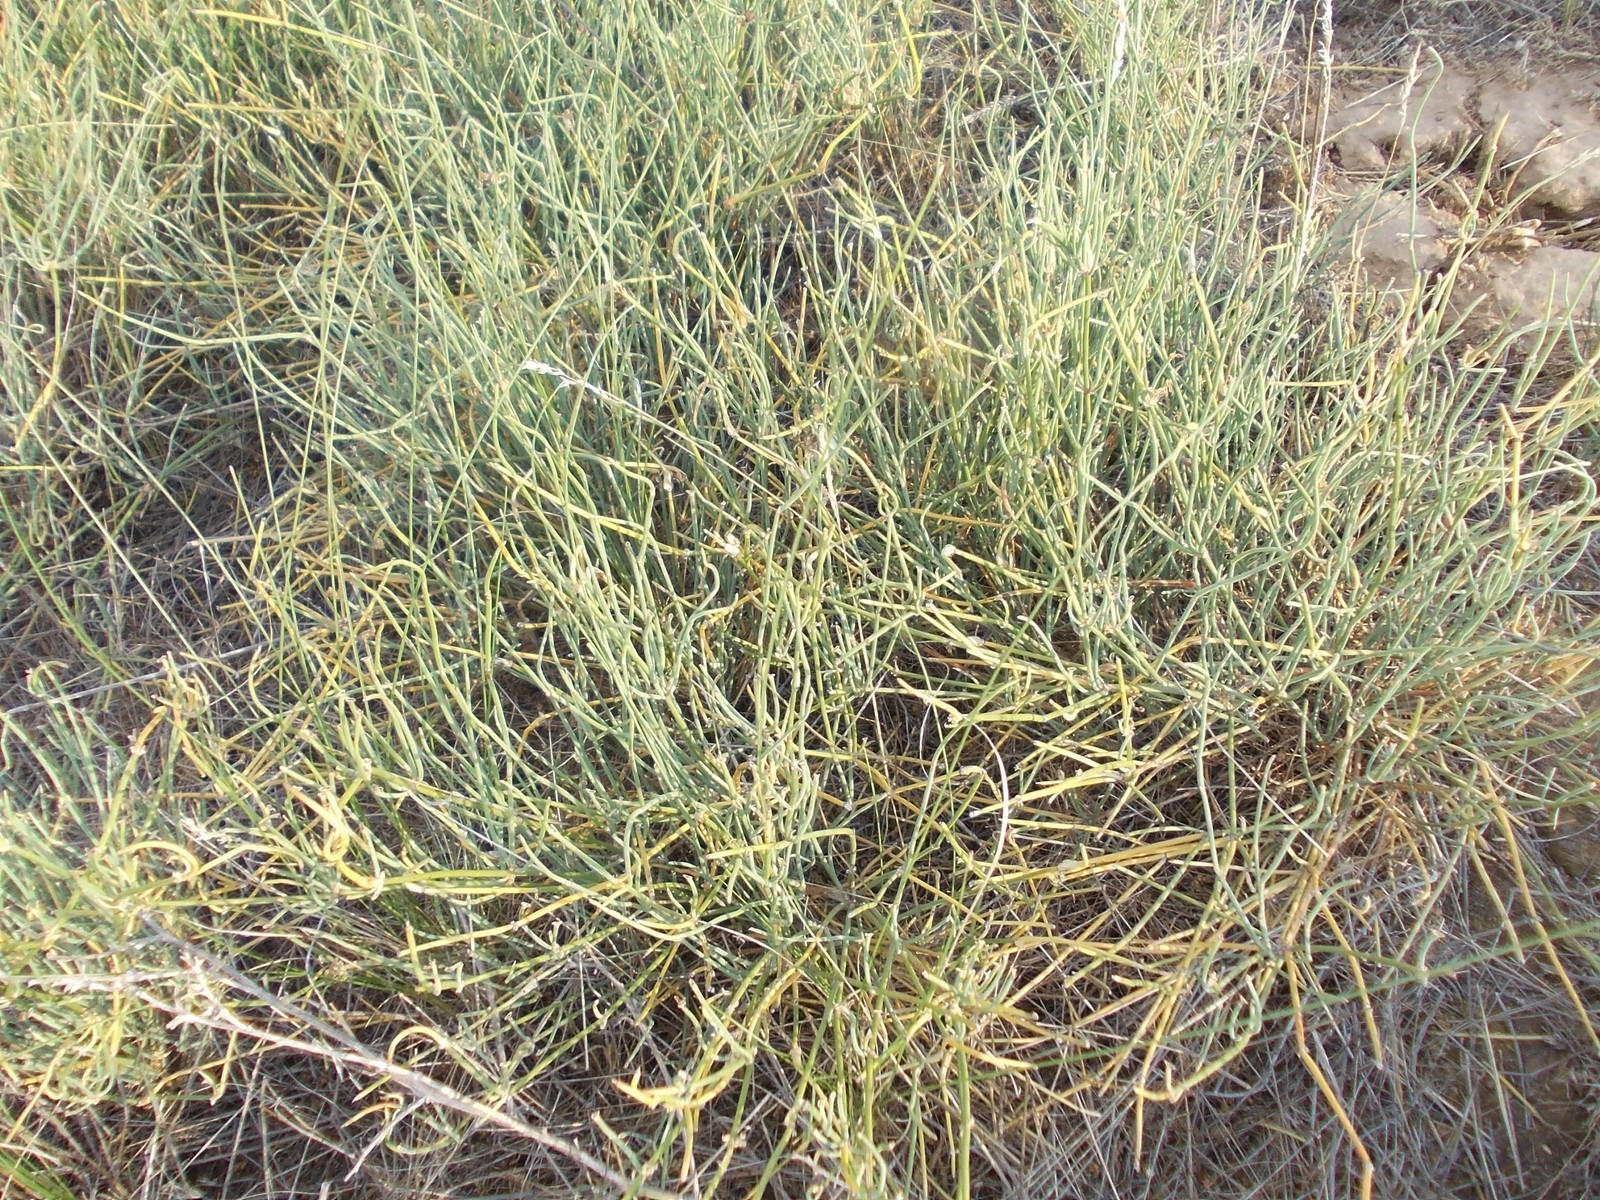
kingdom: Plantae
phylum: Tracheophyta
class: Gnetopsida
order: Ephedrales
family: Ephedraceae
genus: Ephedra
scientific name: Ephedra distachya
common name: Sea grape
